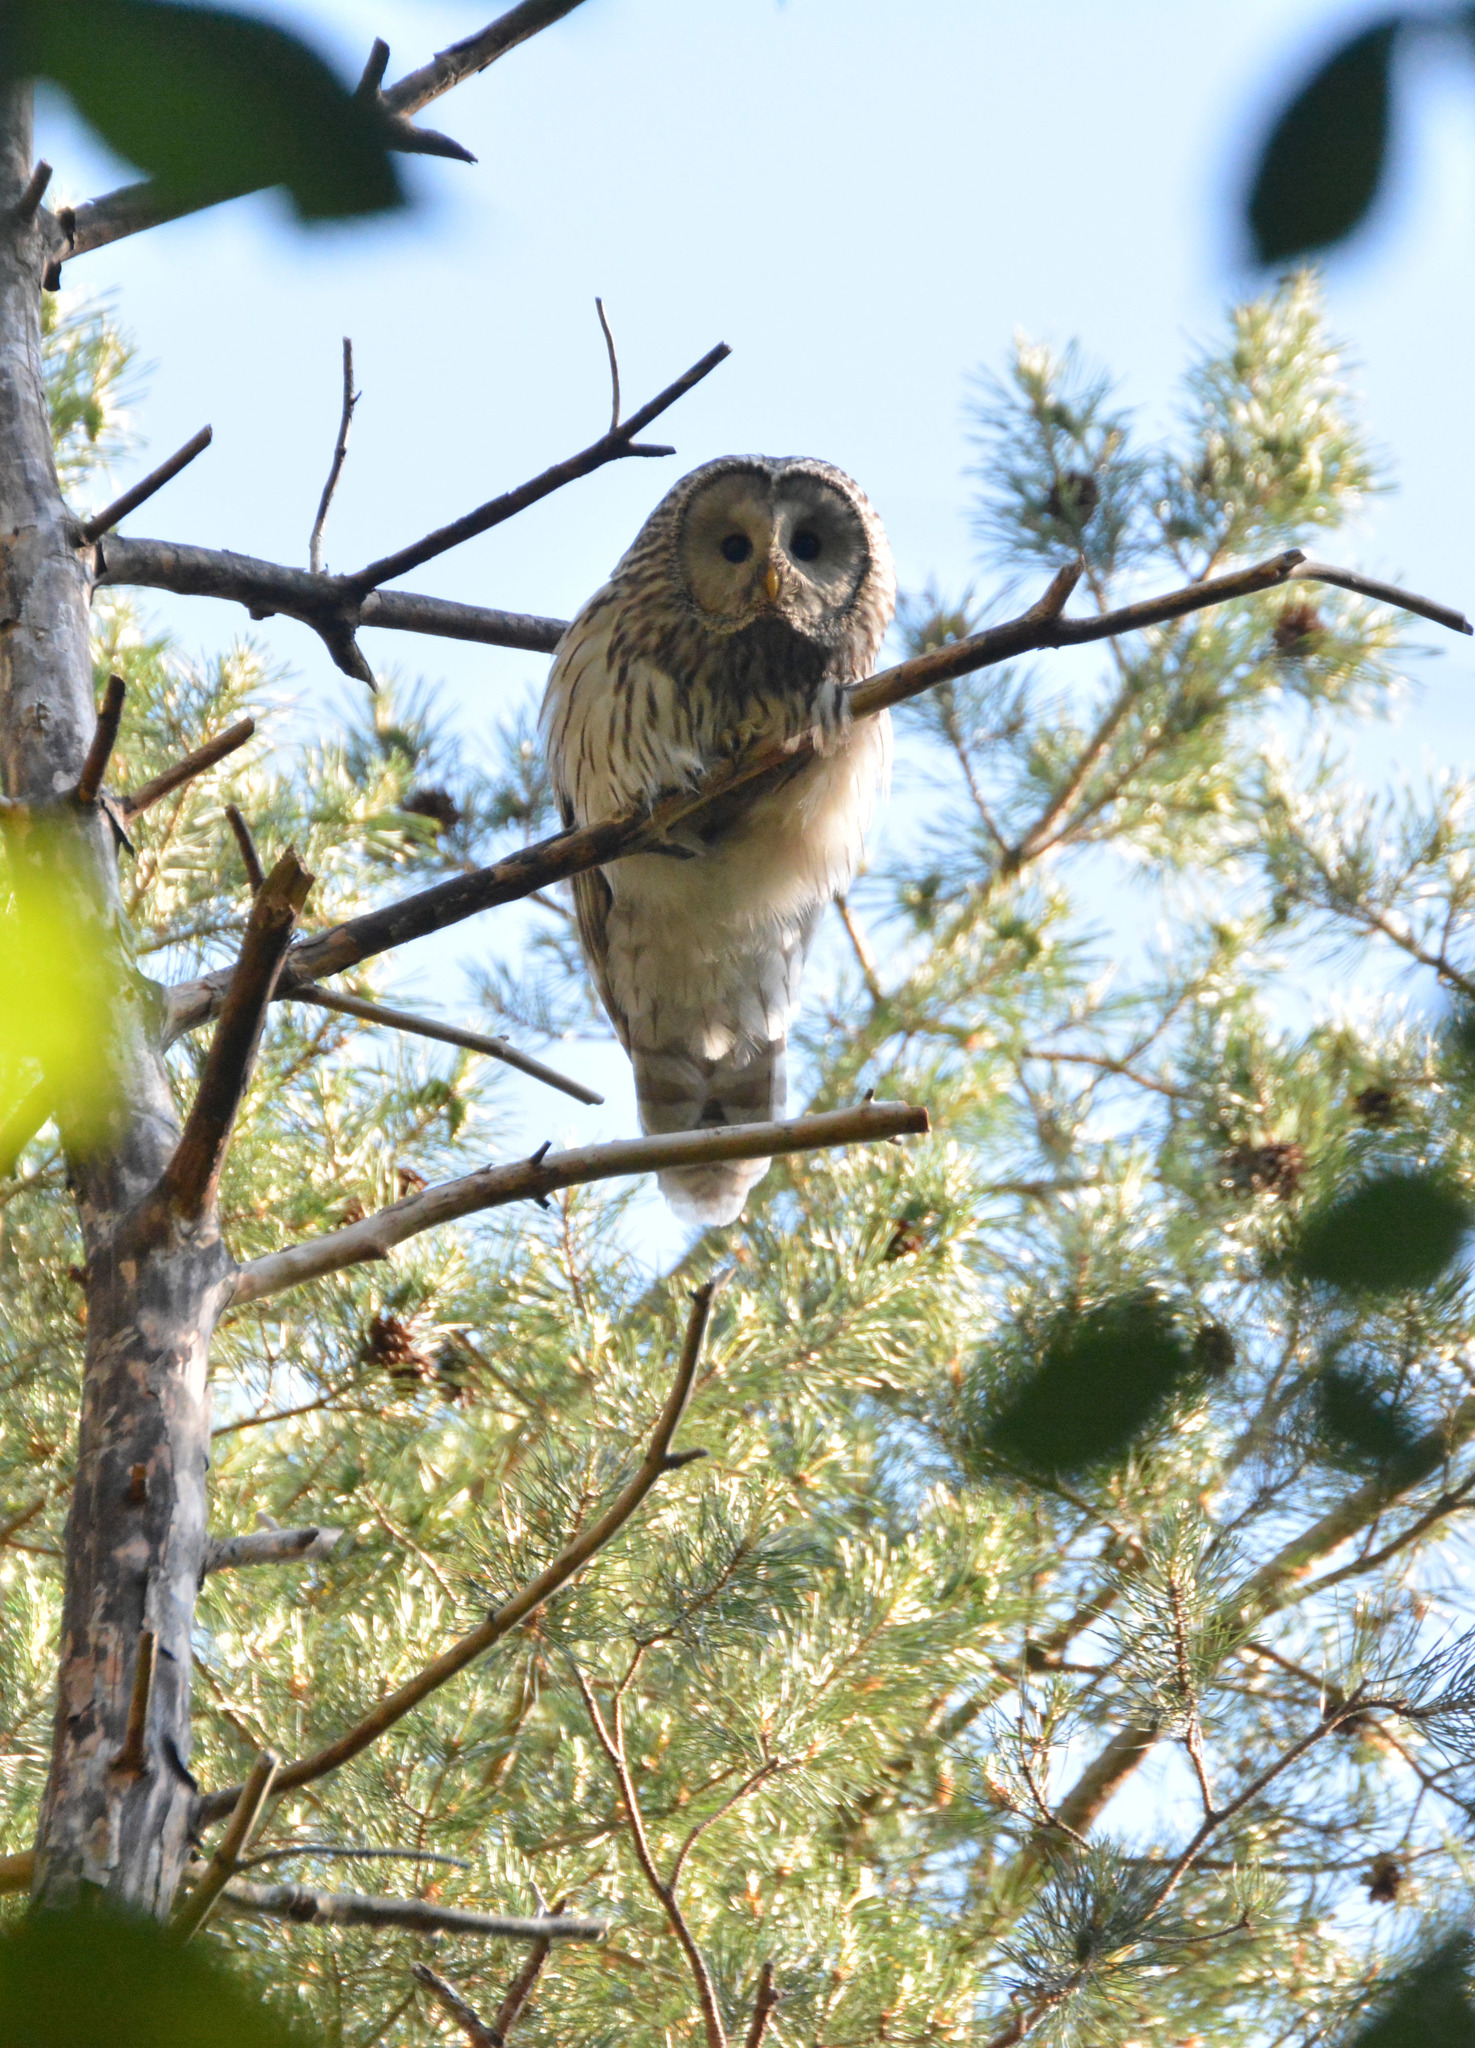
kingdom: Animalia
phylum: Chordata
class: Aves
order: Strigiformes
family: Strigidae
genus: Strix
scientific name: Strix uralensis
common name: Ural owl
